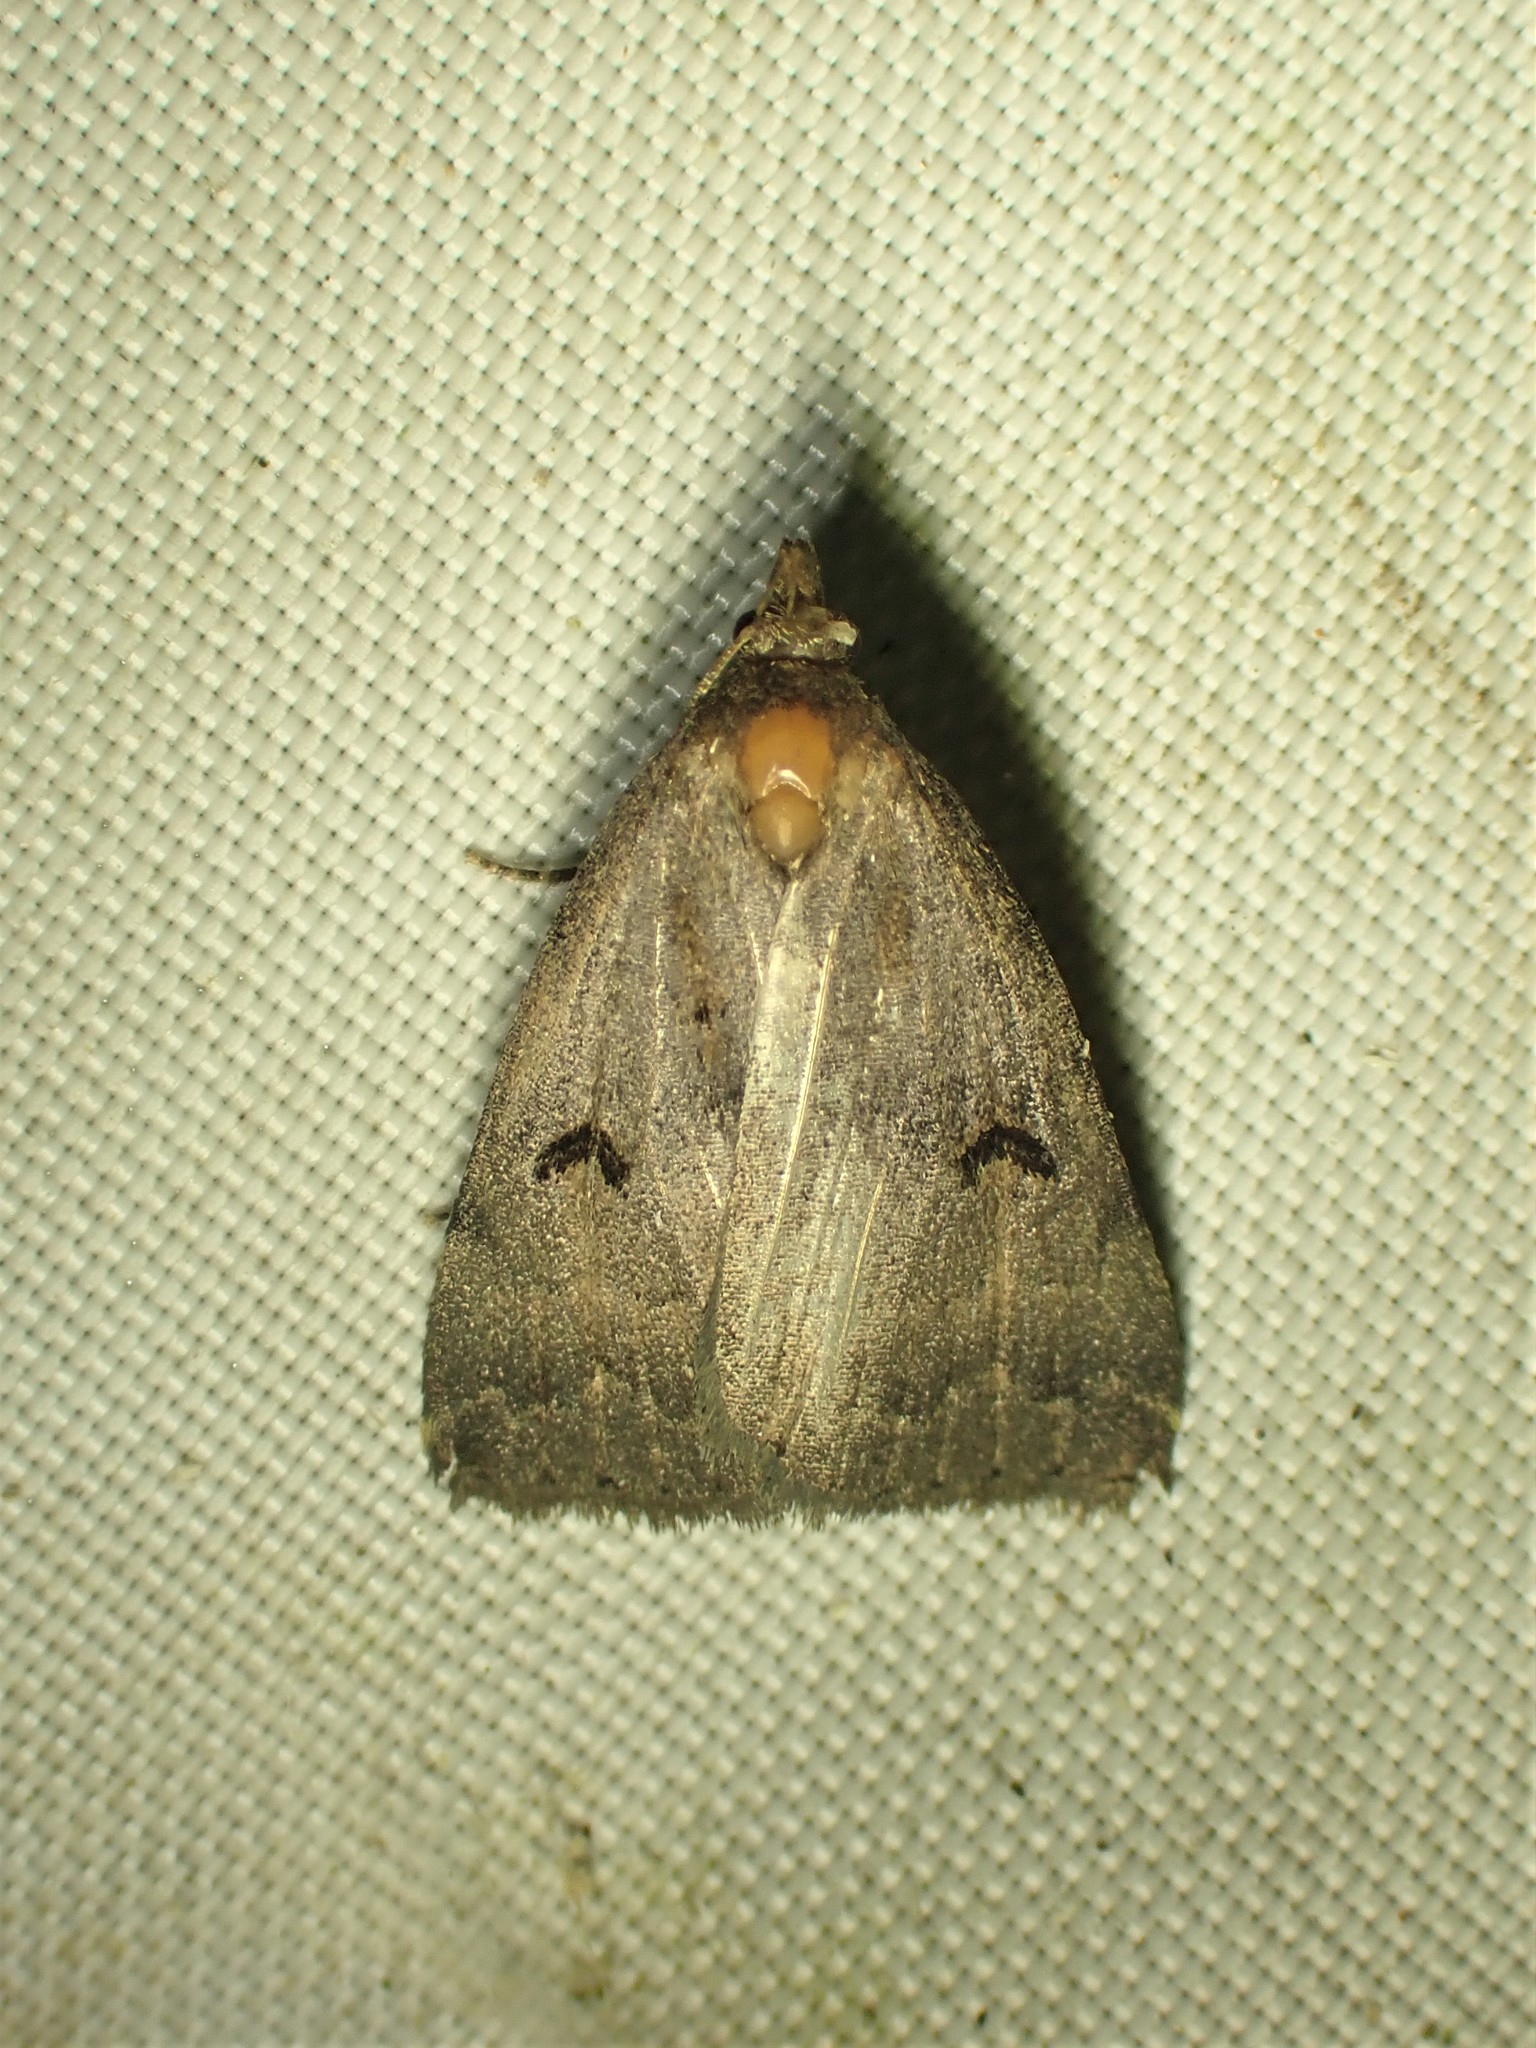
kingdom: Animalia
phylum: Arthropoda
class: Insecta
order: Lepidoptera
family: Erebidae
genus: Phalaenostola
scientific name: Phalaenostola hanhami
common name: Hanham's owlet
